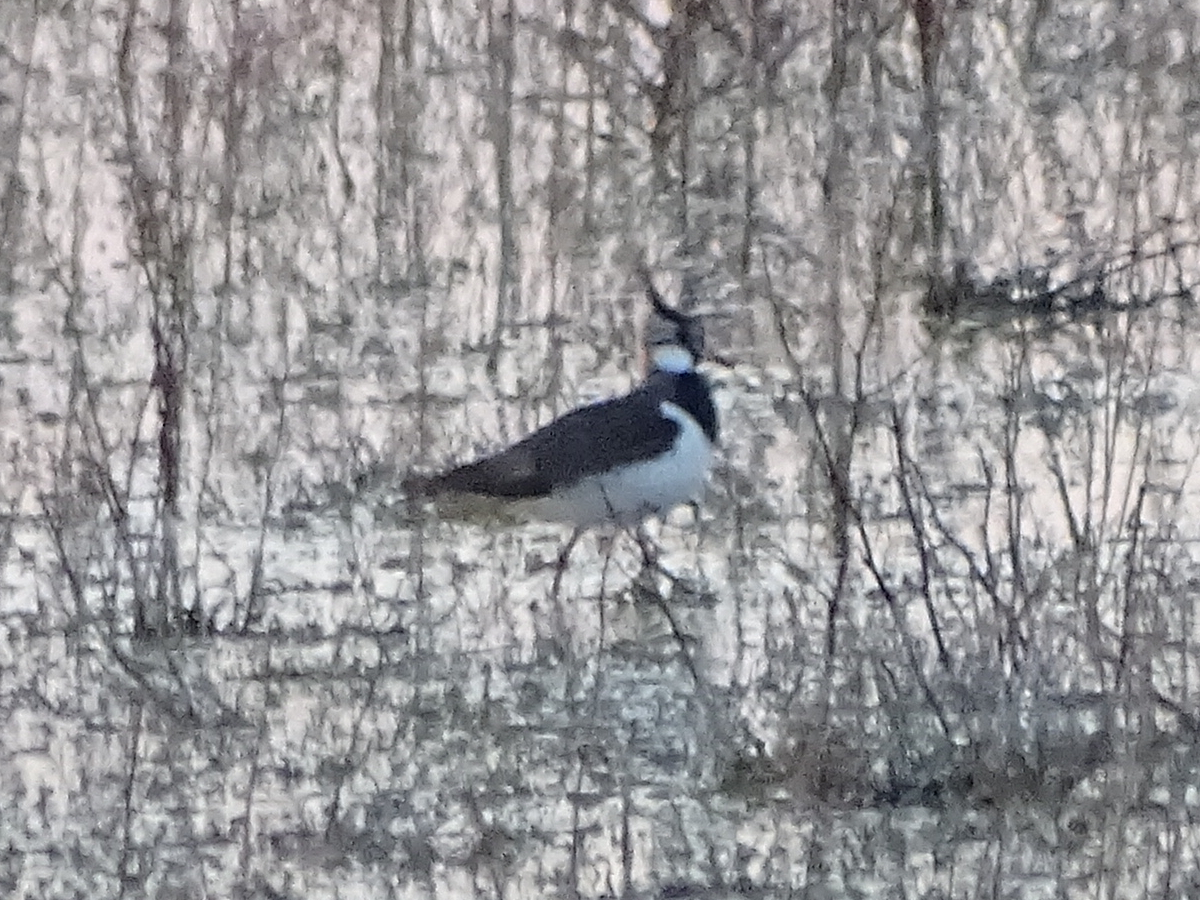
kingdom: Animalia
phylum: Chordata
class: Aves
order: Charadriiformes
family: Charadriidae
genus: Vanellus
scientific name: Vanellus vanellus
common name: Northern lapwing
